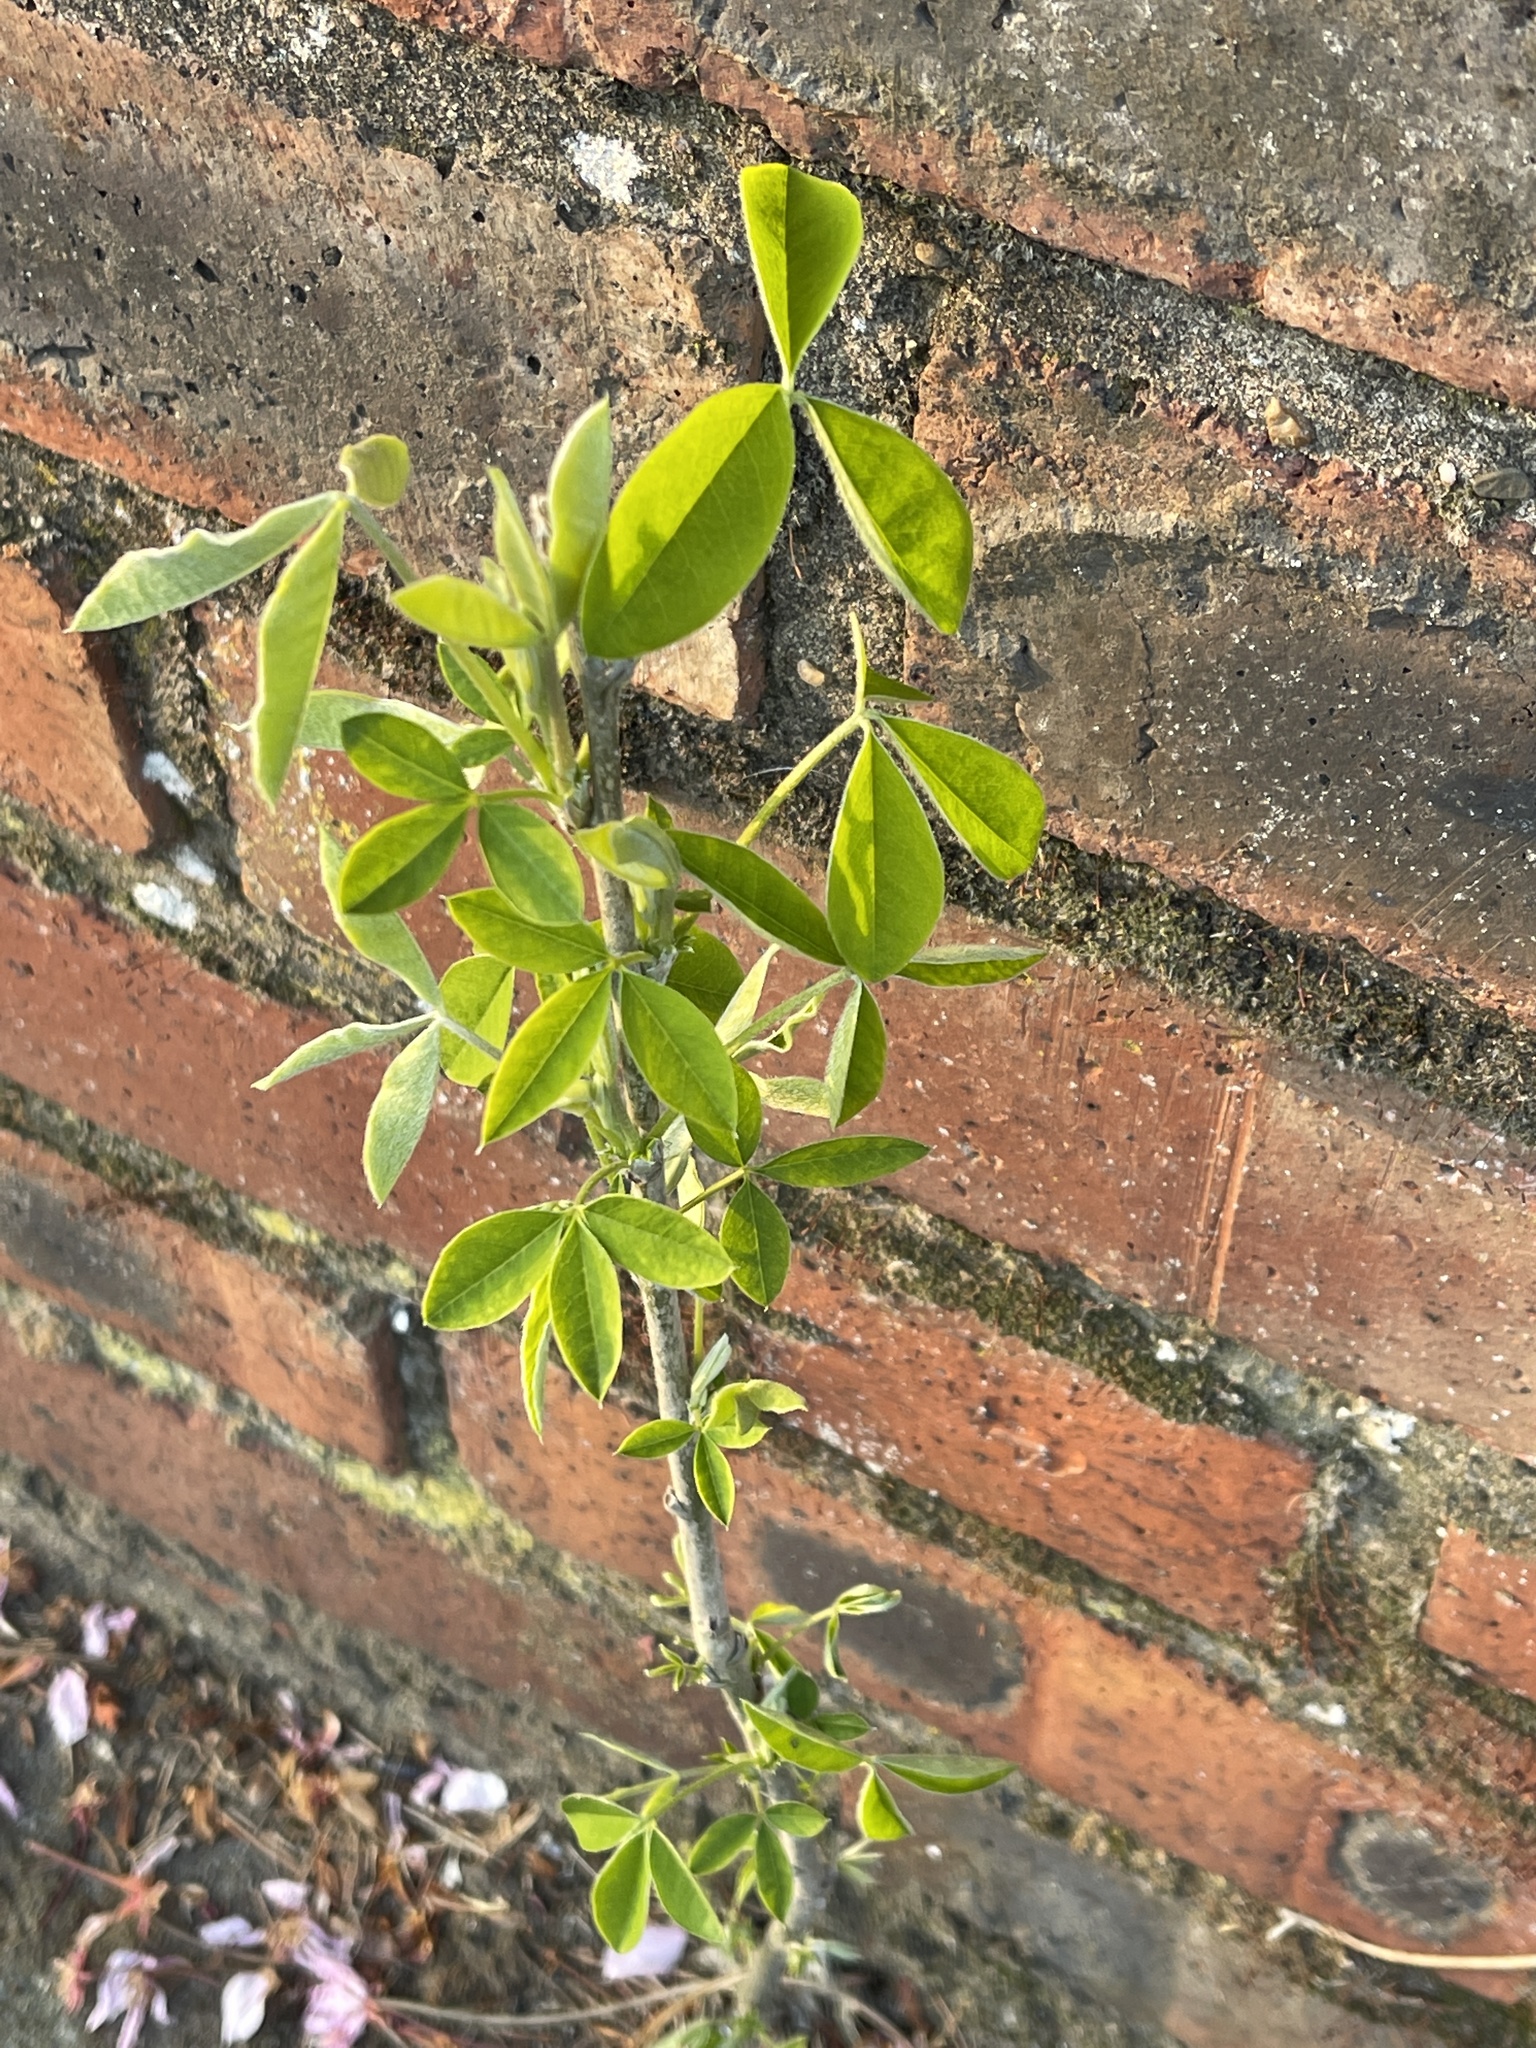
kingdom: Plantae
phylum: Tracheophyta
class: Magnoliopsida
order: Fabales
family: Fabaceae
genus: Laburnum
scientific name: Laburnum anagyroides
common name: Laburnum
